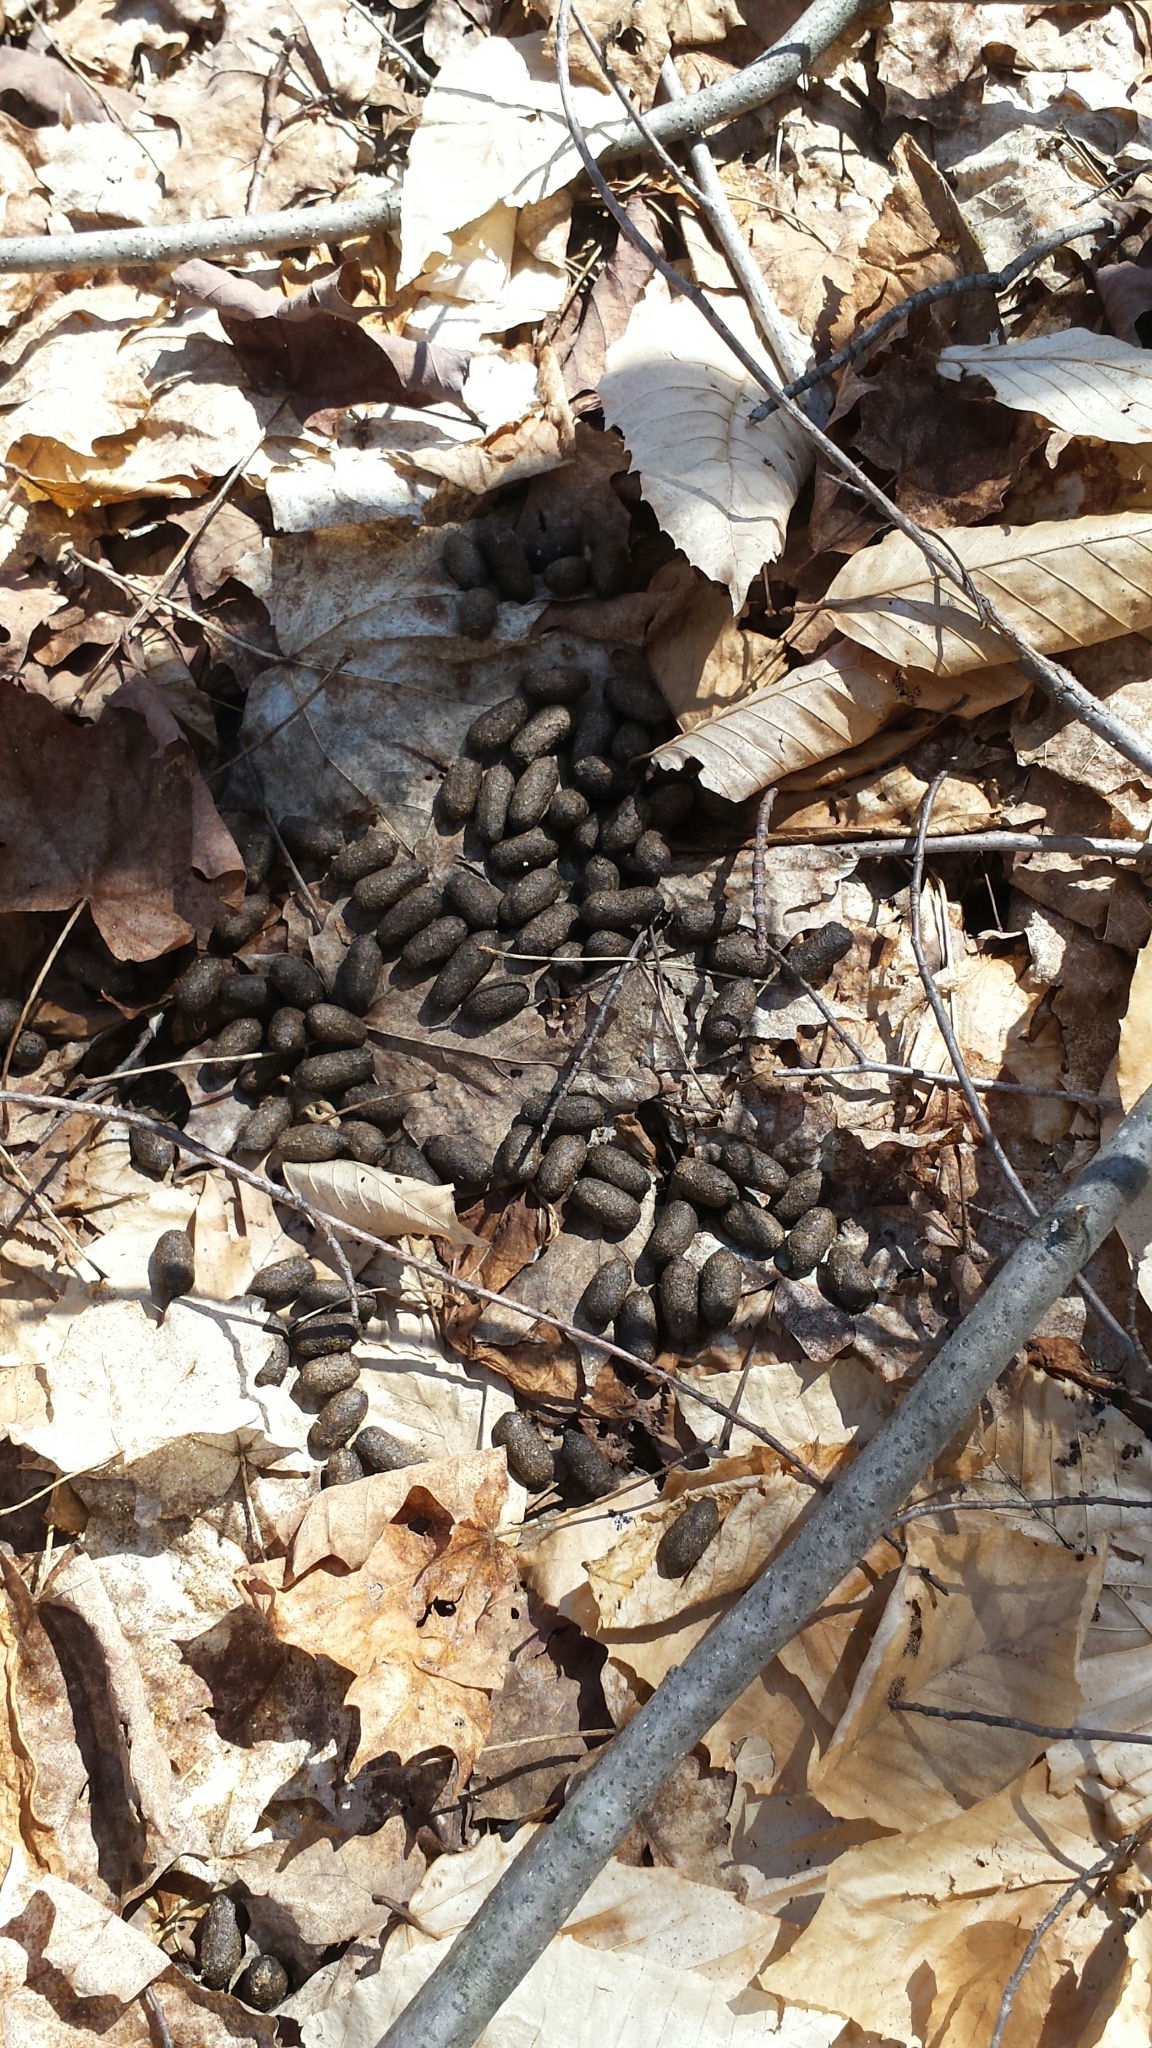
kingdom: Animalia
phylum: Chordata
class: Mammalia
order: Artiodactyla
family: Cervidae
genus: Odocoileus
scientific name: Odocoileus virginianus
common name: White-tailed deer
